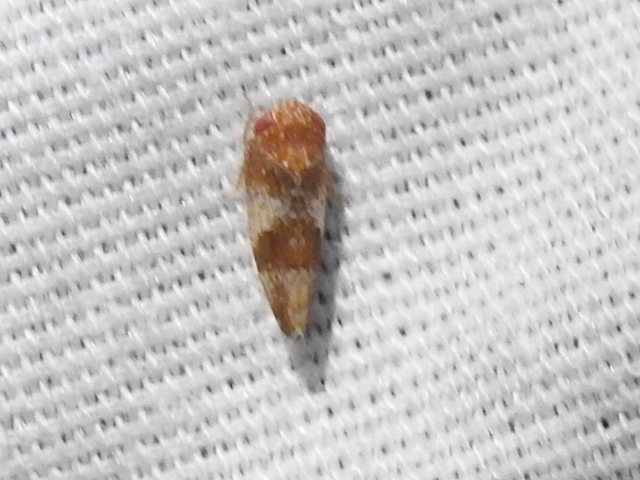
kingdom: Animalia
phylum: Arthropoda
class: Insecta
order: Hemiptera
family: Cicadellidae
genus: Norvellina
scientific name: Norvellina helenae
